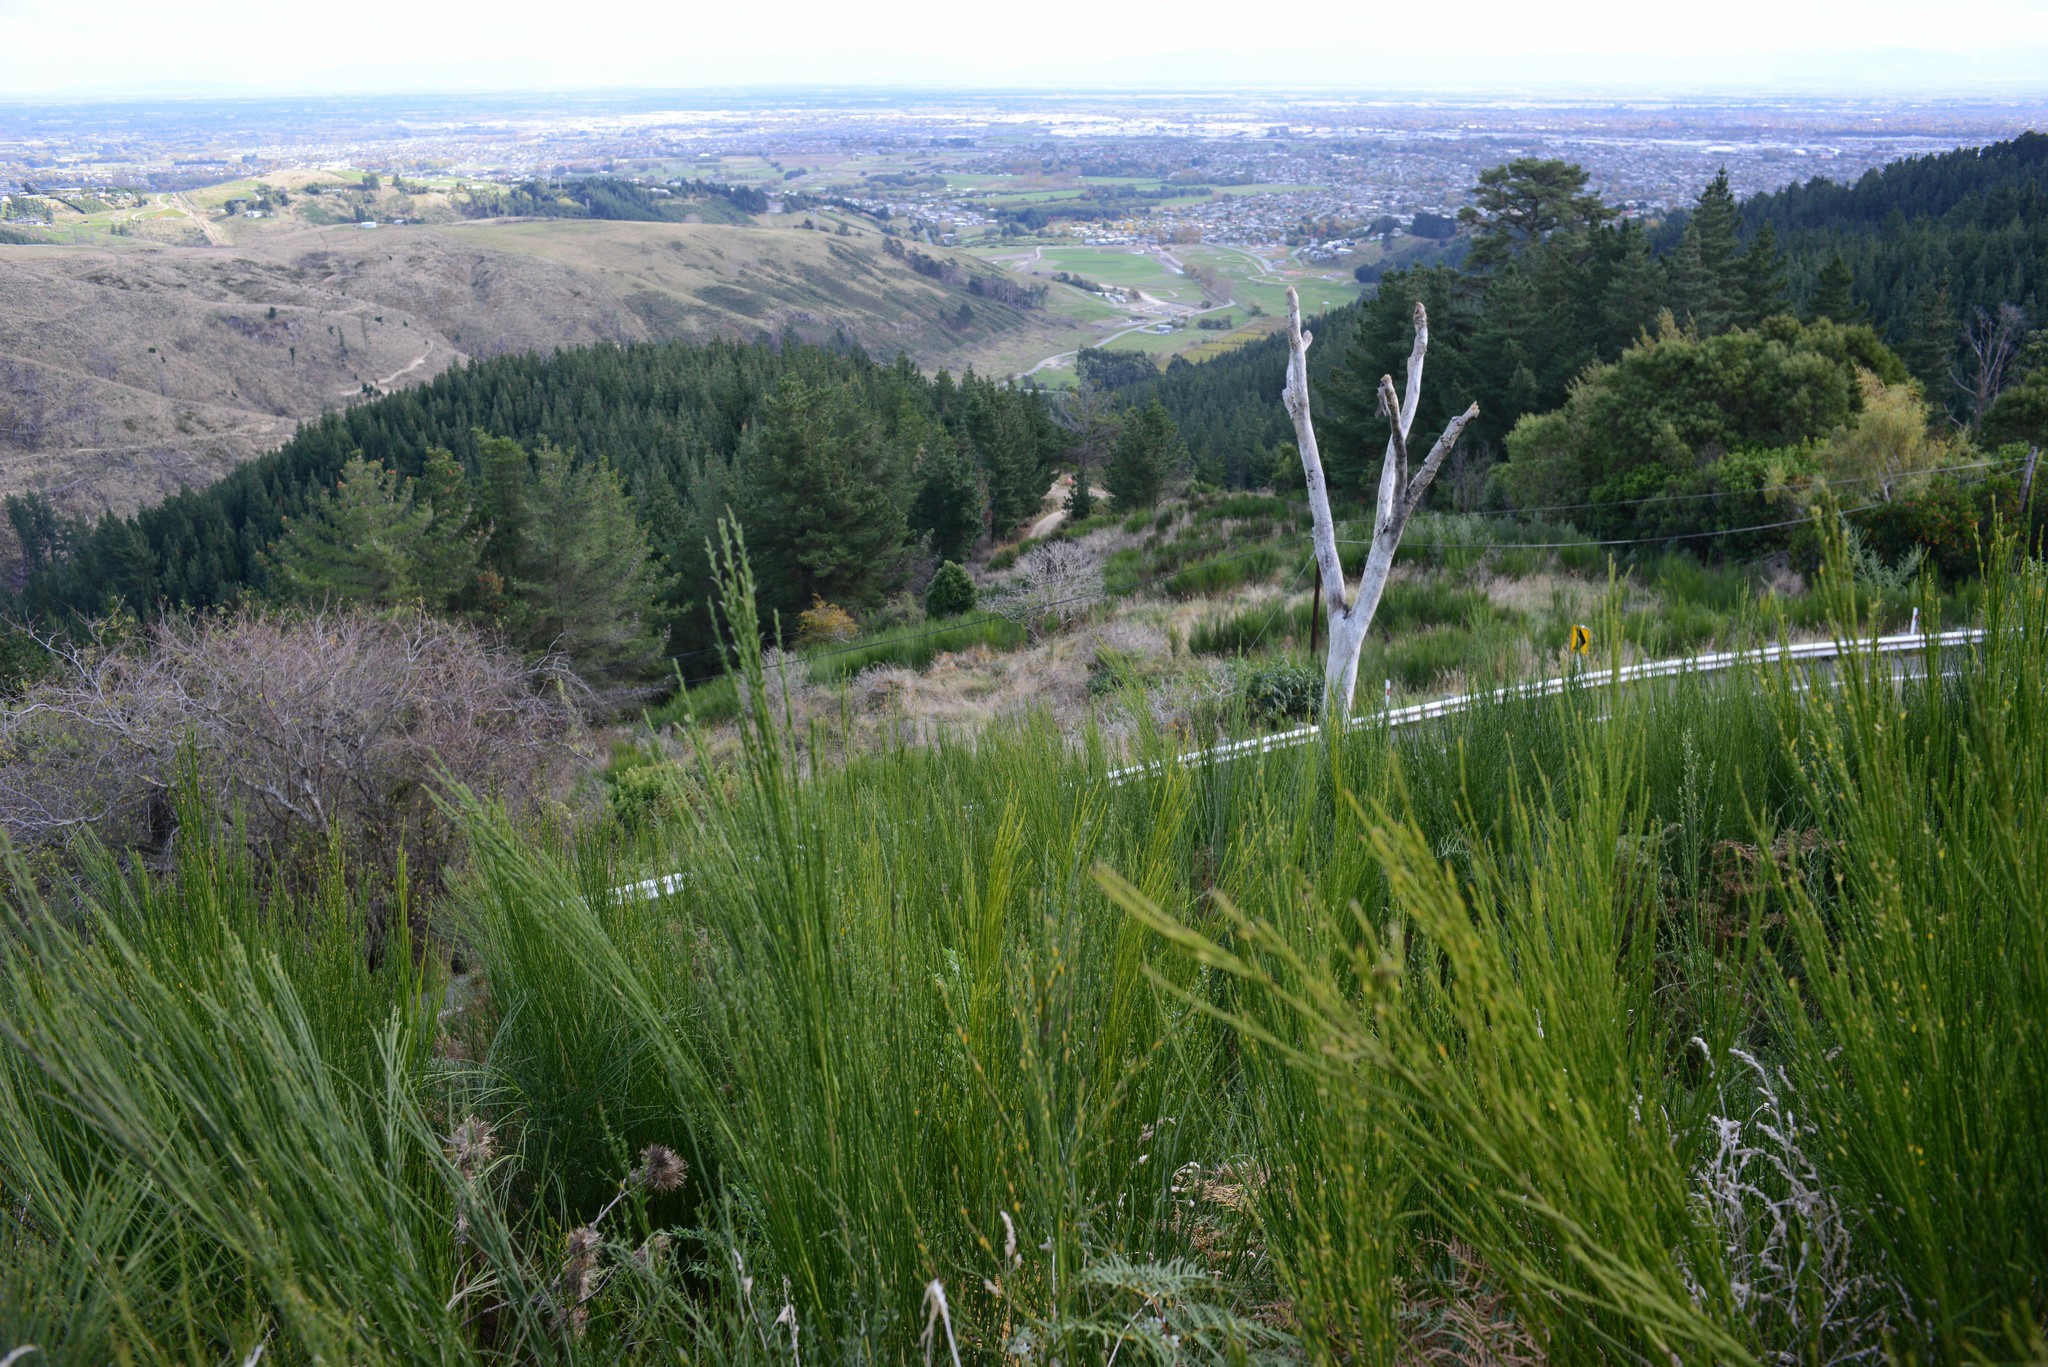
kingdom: Plantae
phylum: Tracheophyta
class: Liliopsida
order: Asparagales
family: Asparagaceae
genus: Cordyline
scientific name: Cordyline australis
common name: Cabbage-palm
